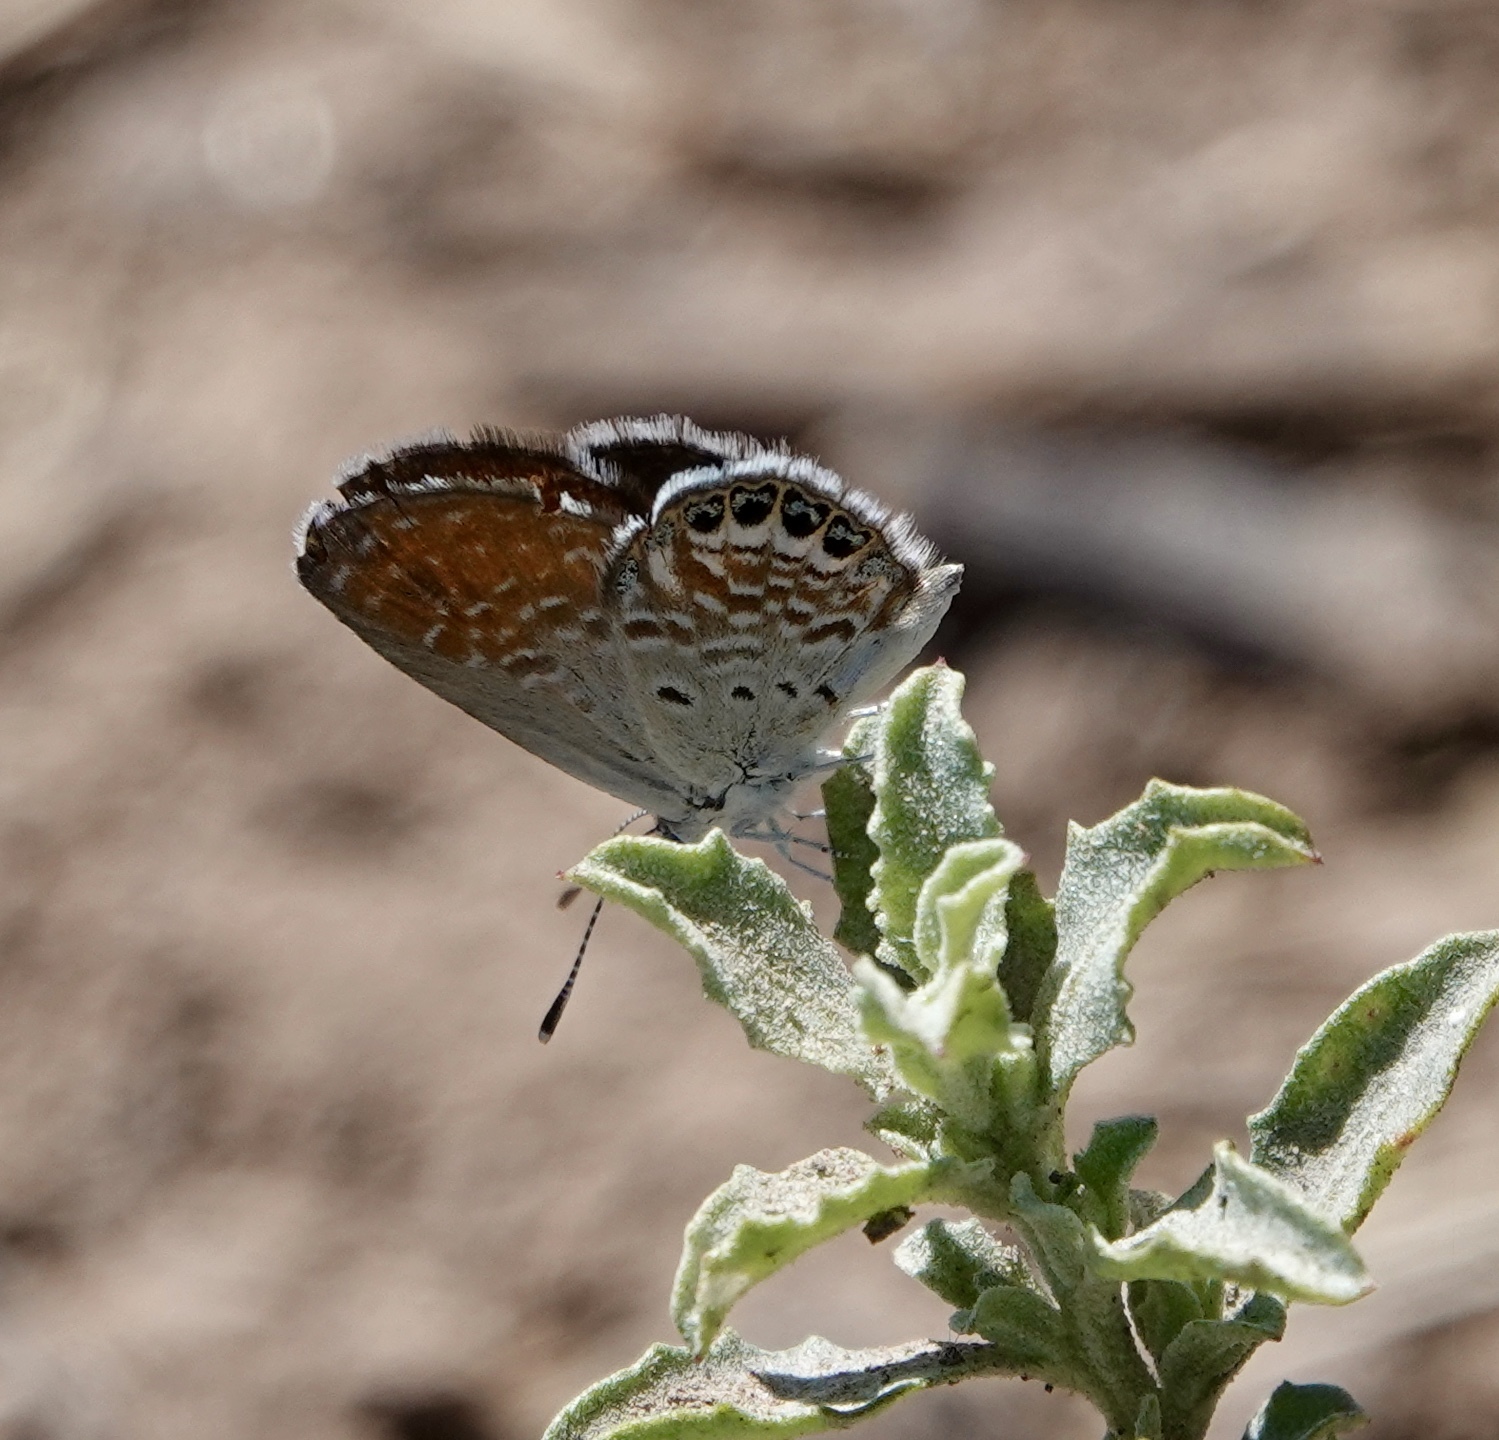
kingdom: Animalia
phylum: Arthropoda
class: Insecta
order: Lepidoptera
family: Lycaenidae
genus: Brephidium
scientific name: Brephidium exilis
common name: Pygmy blue
